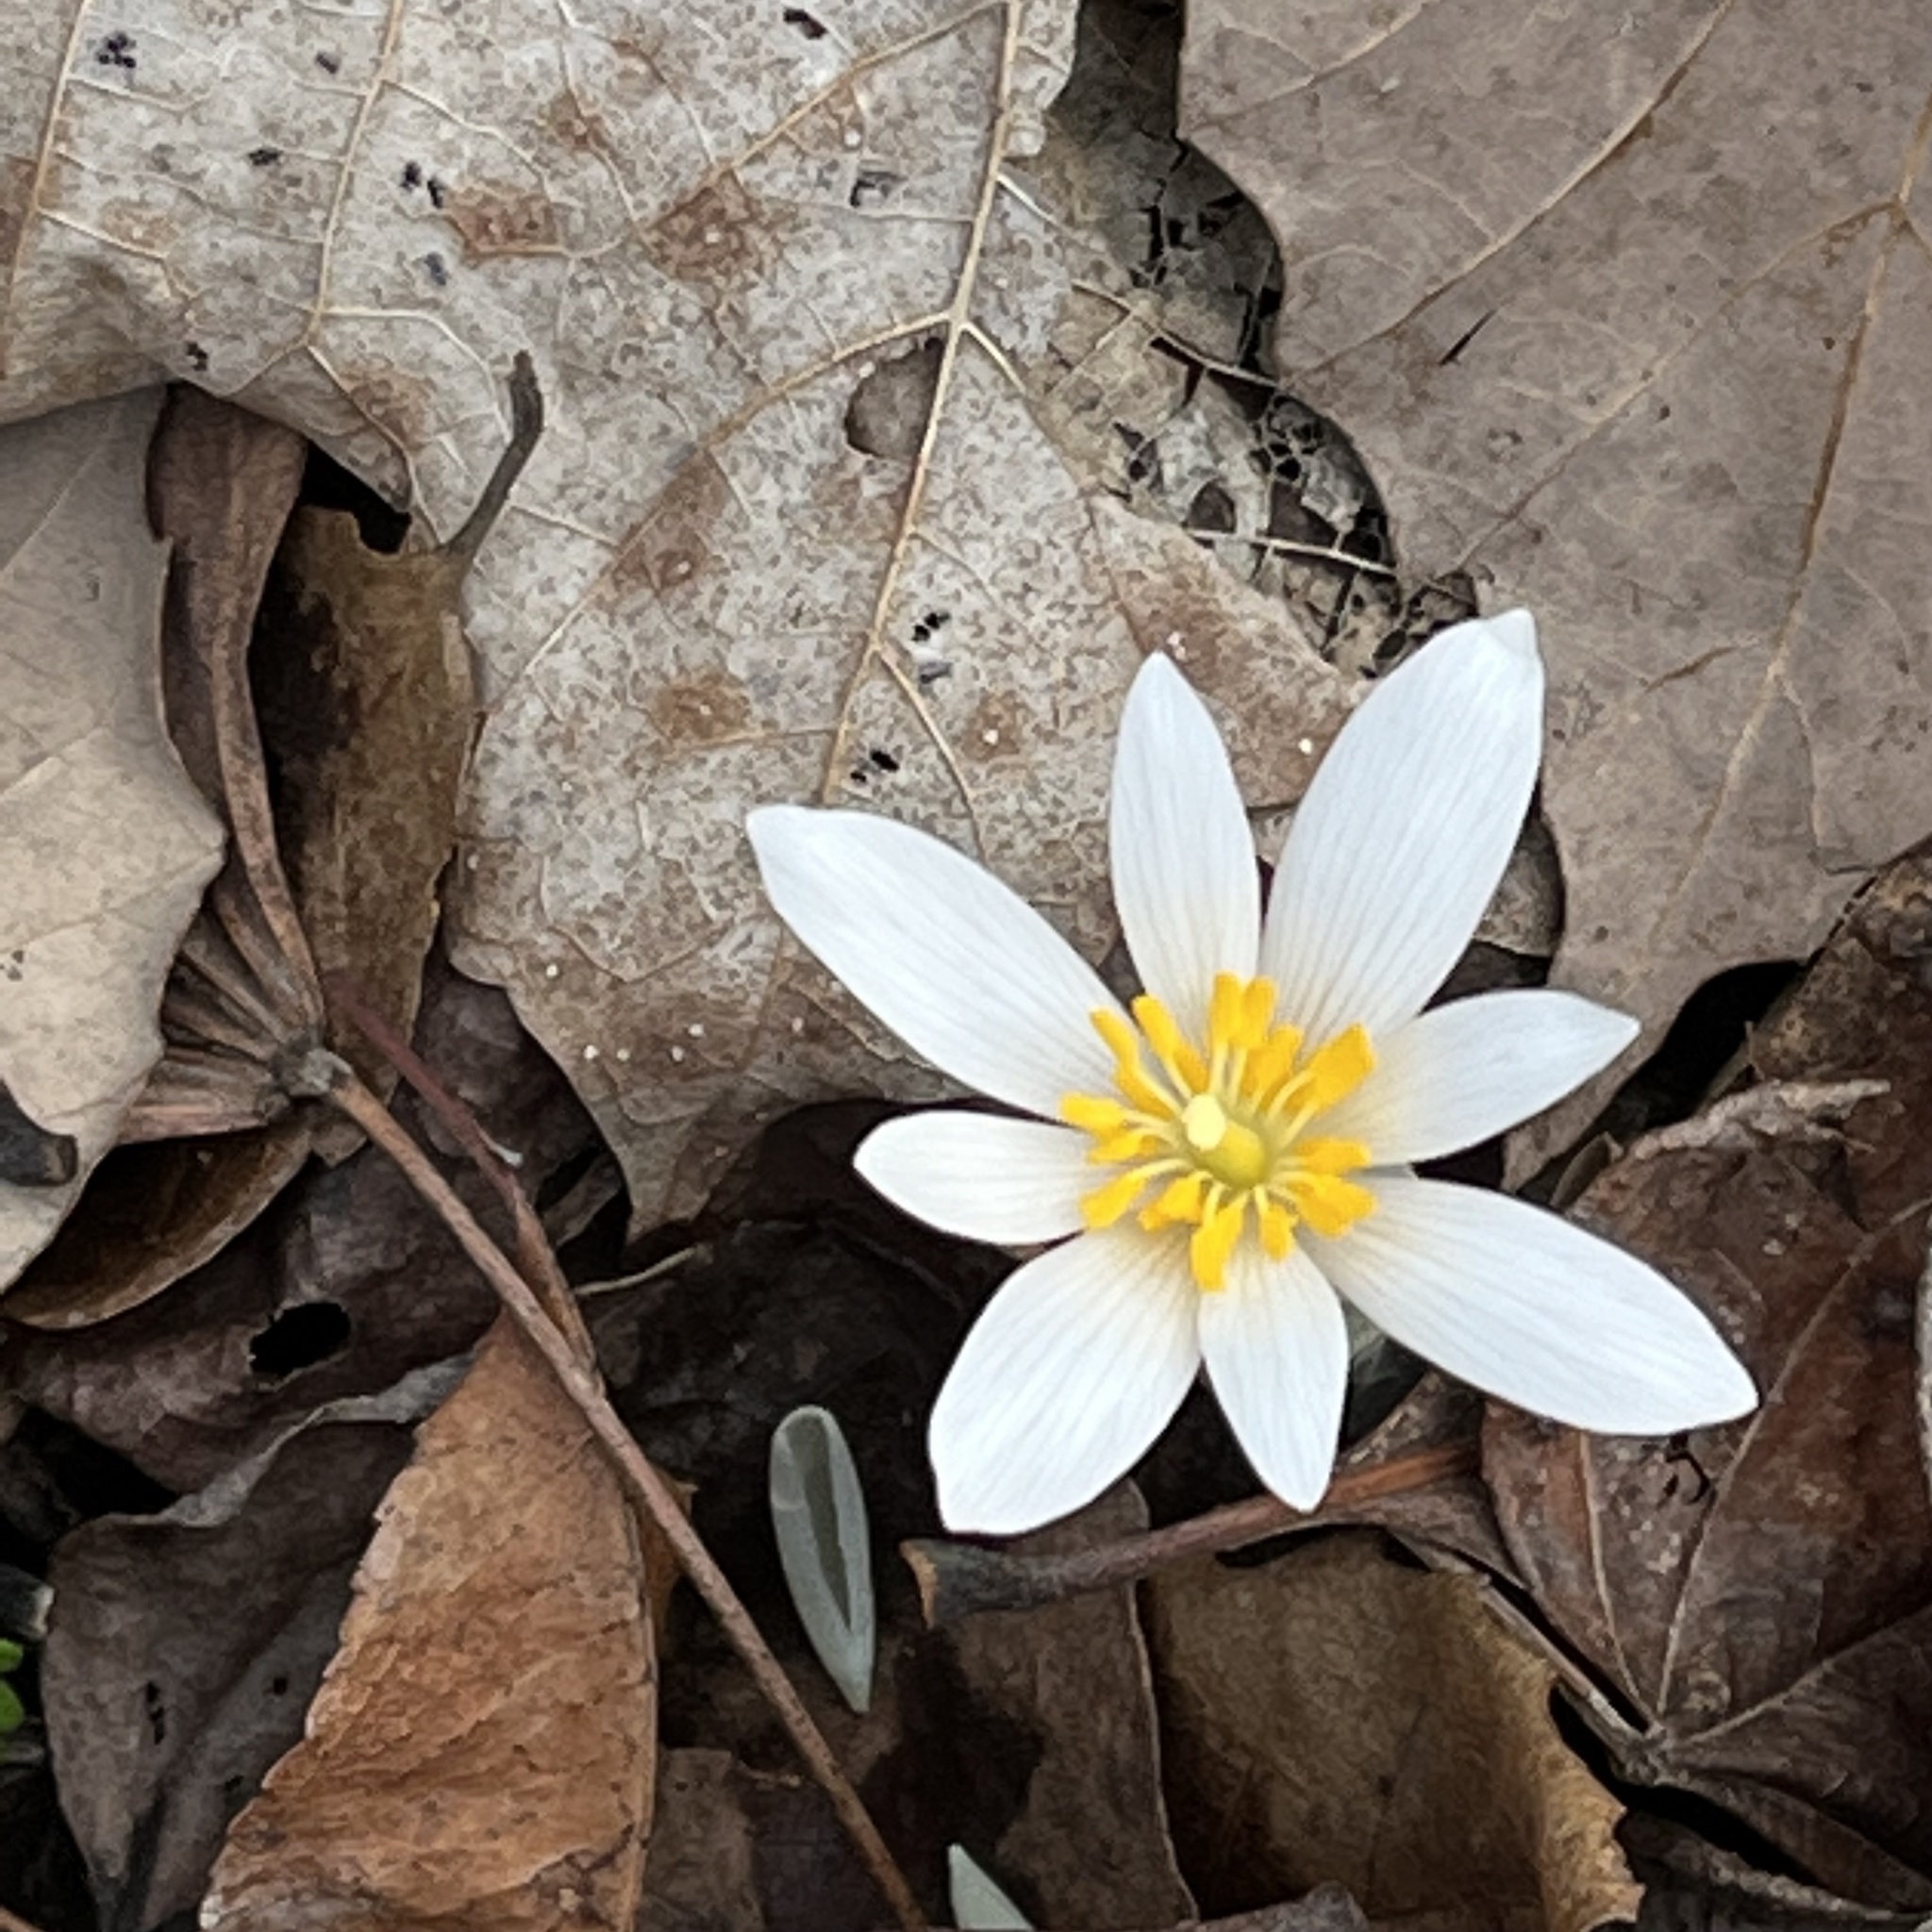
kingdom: Plantae
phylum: Tracheophyta
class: Magnoliopsida
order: Ranunculales
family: Papaveraceae
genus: Sanguinaria
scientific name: Sanguinaria canadensis
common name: Bloodroot
